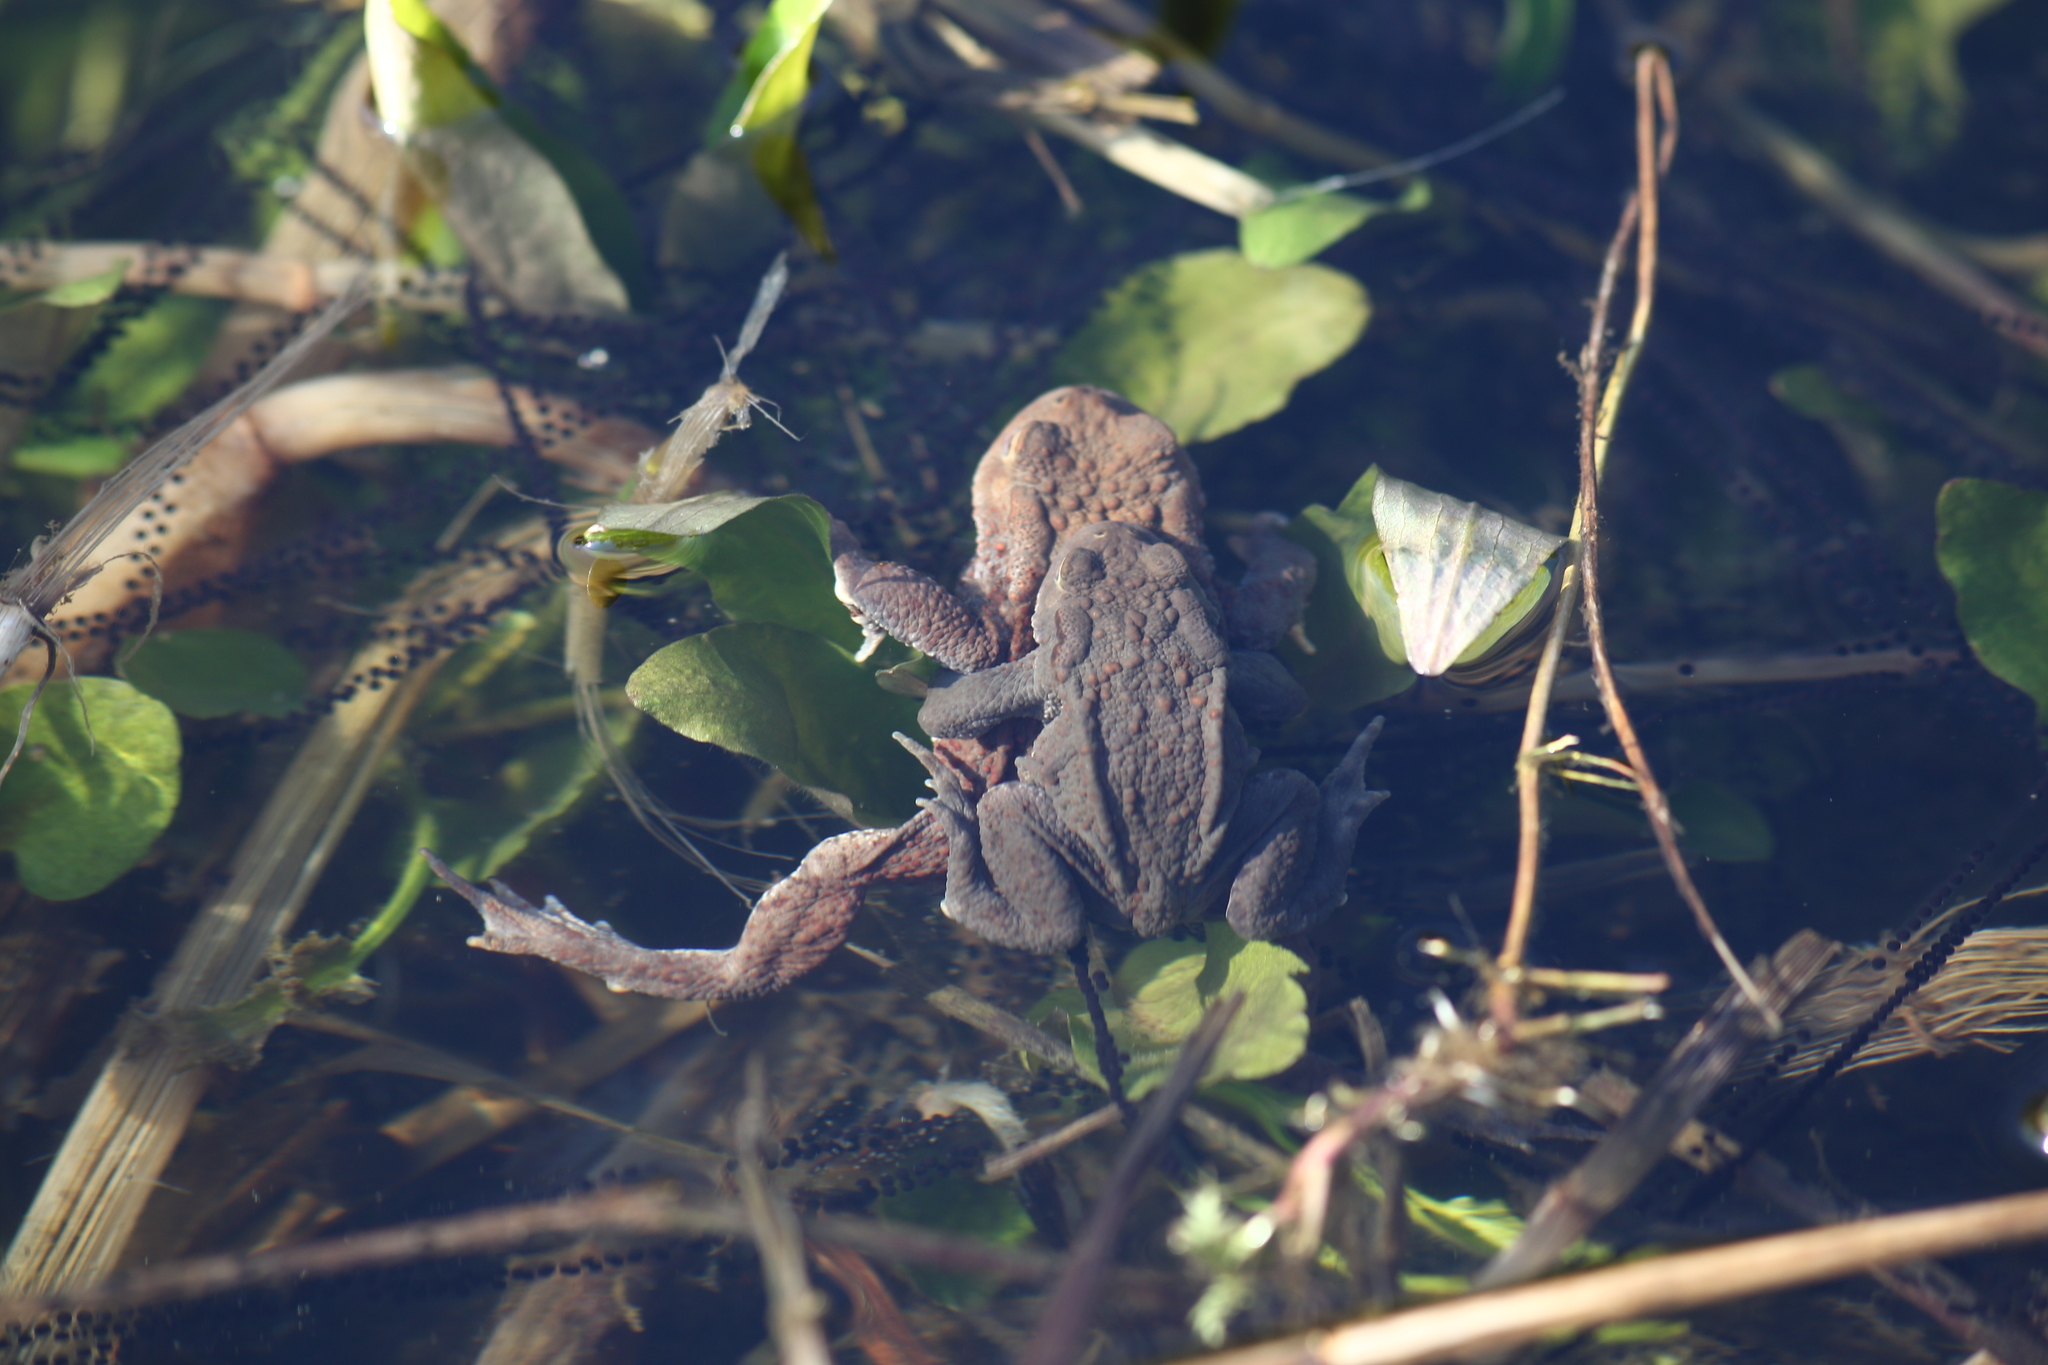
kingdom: Animalia
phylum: Chordata
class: Amphibia
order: Anura
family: Bufonidae
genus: Bufo
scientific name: Bufo bufo
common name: Common toad
